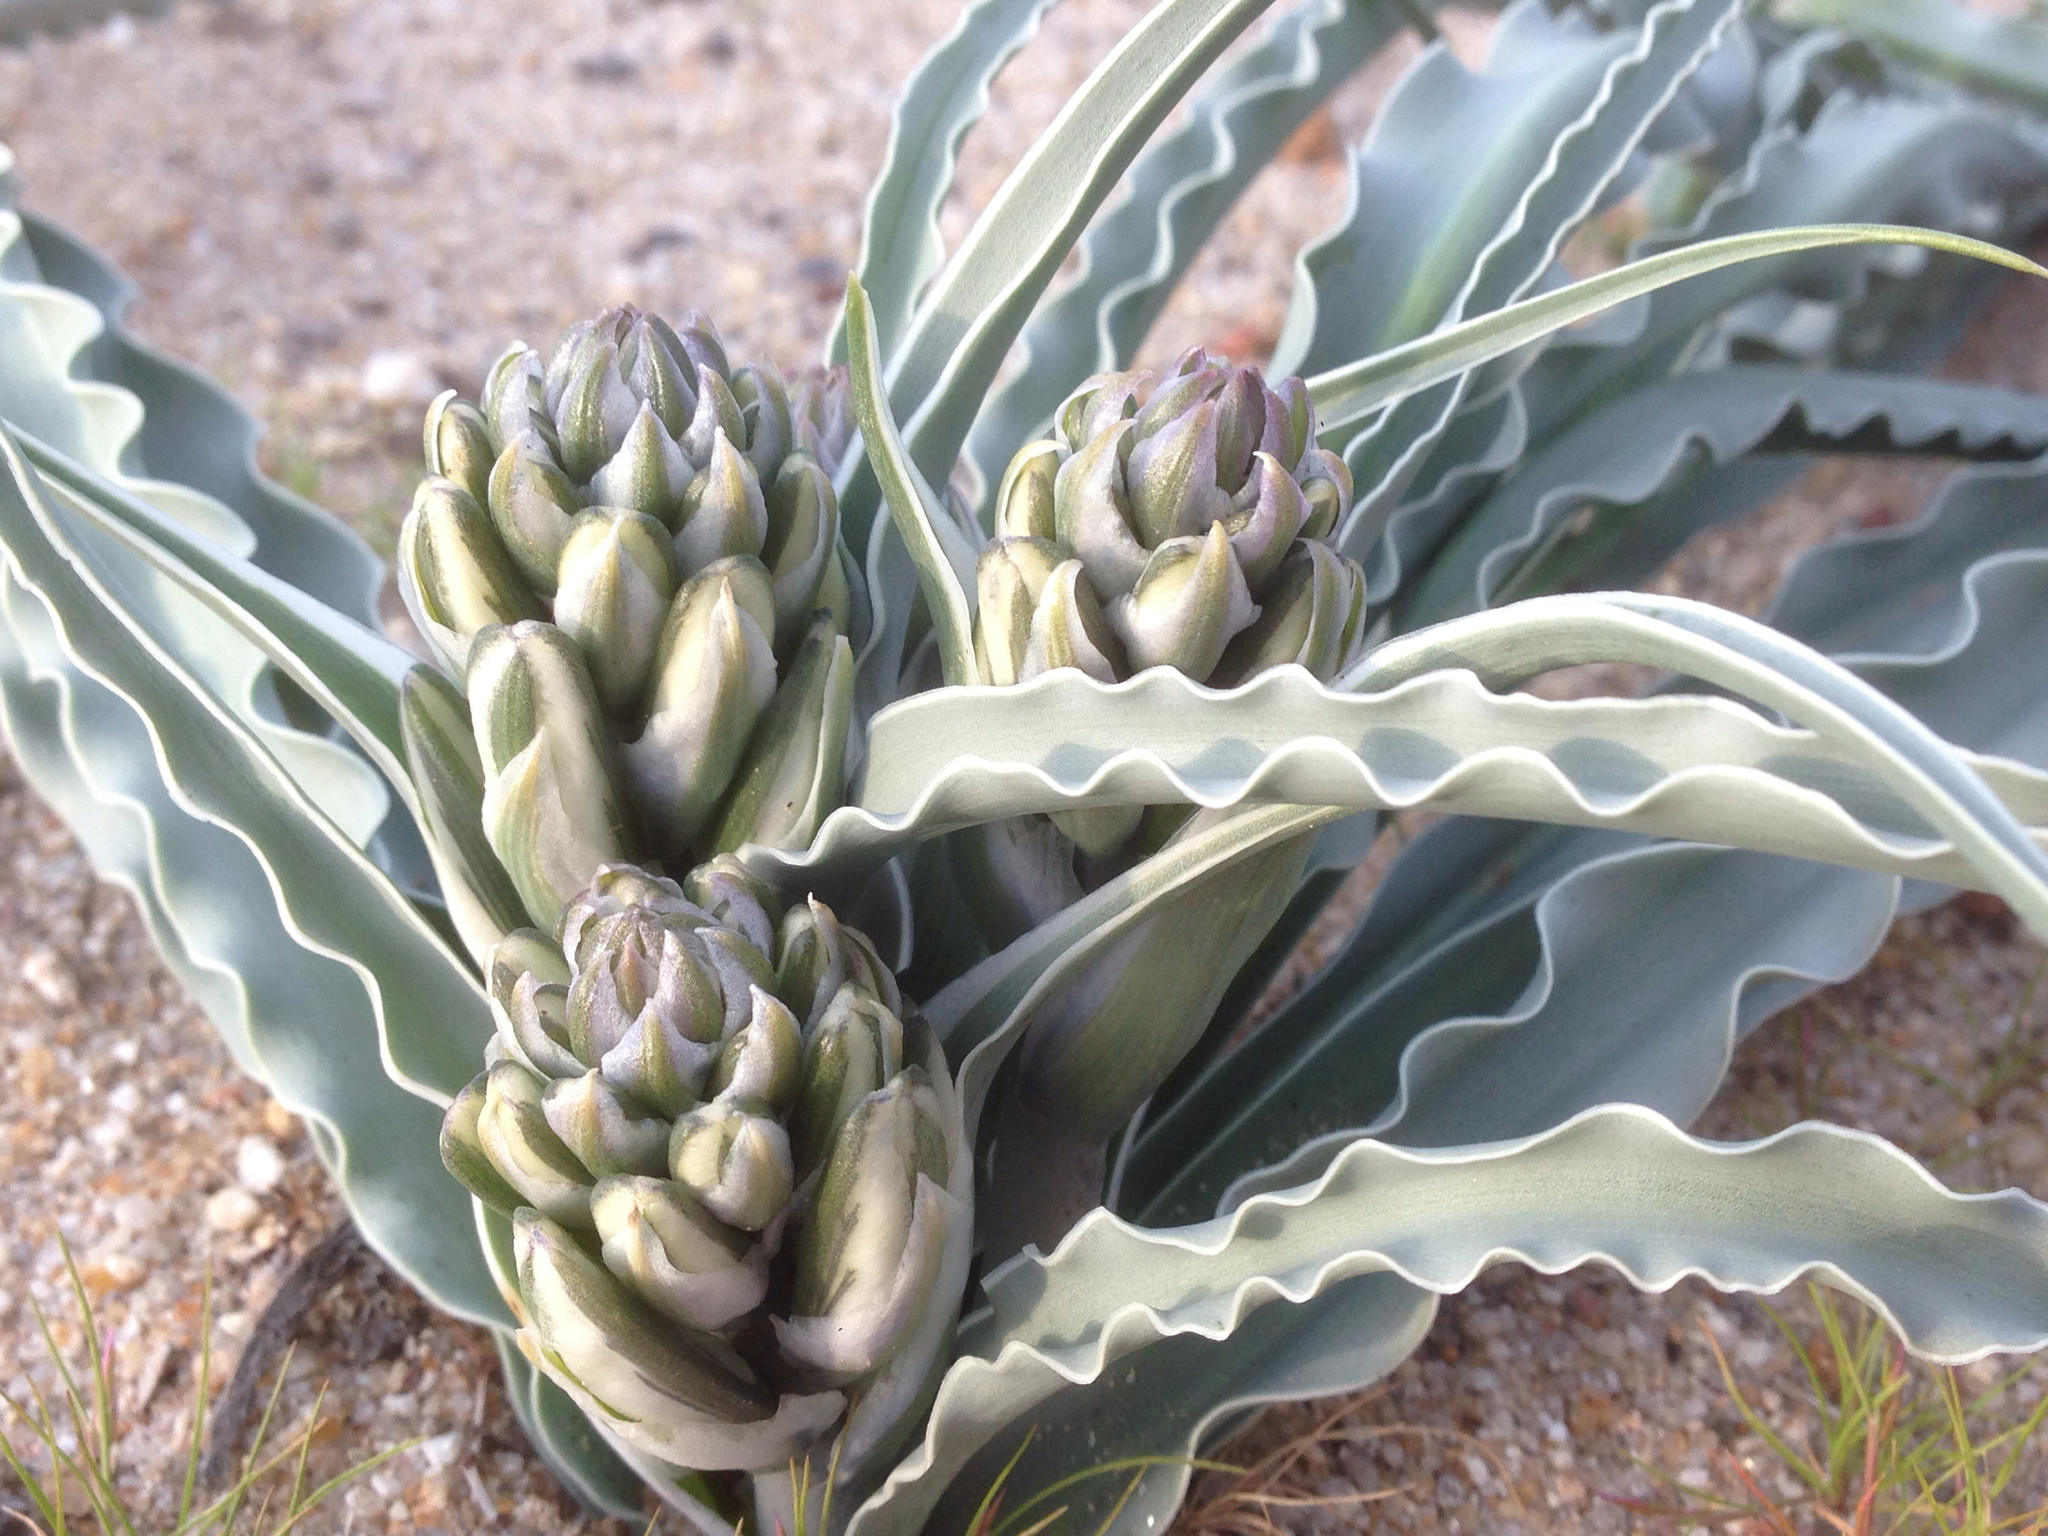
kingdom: Plantae
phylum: Tracheophyta
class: Liliopsida
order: Asparagales
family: Asparagaceae
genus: Hesperocallis
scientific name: Hesperocallis undulata
